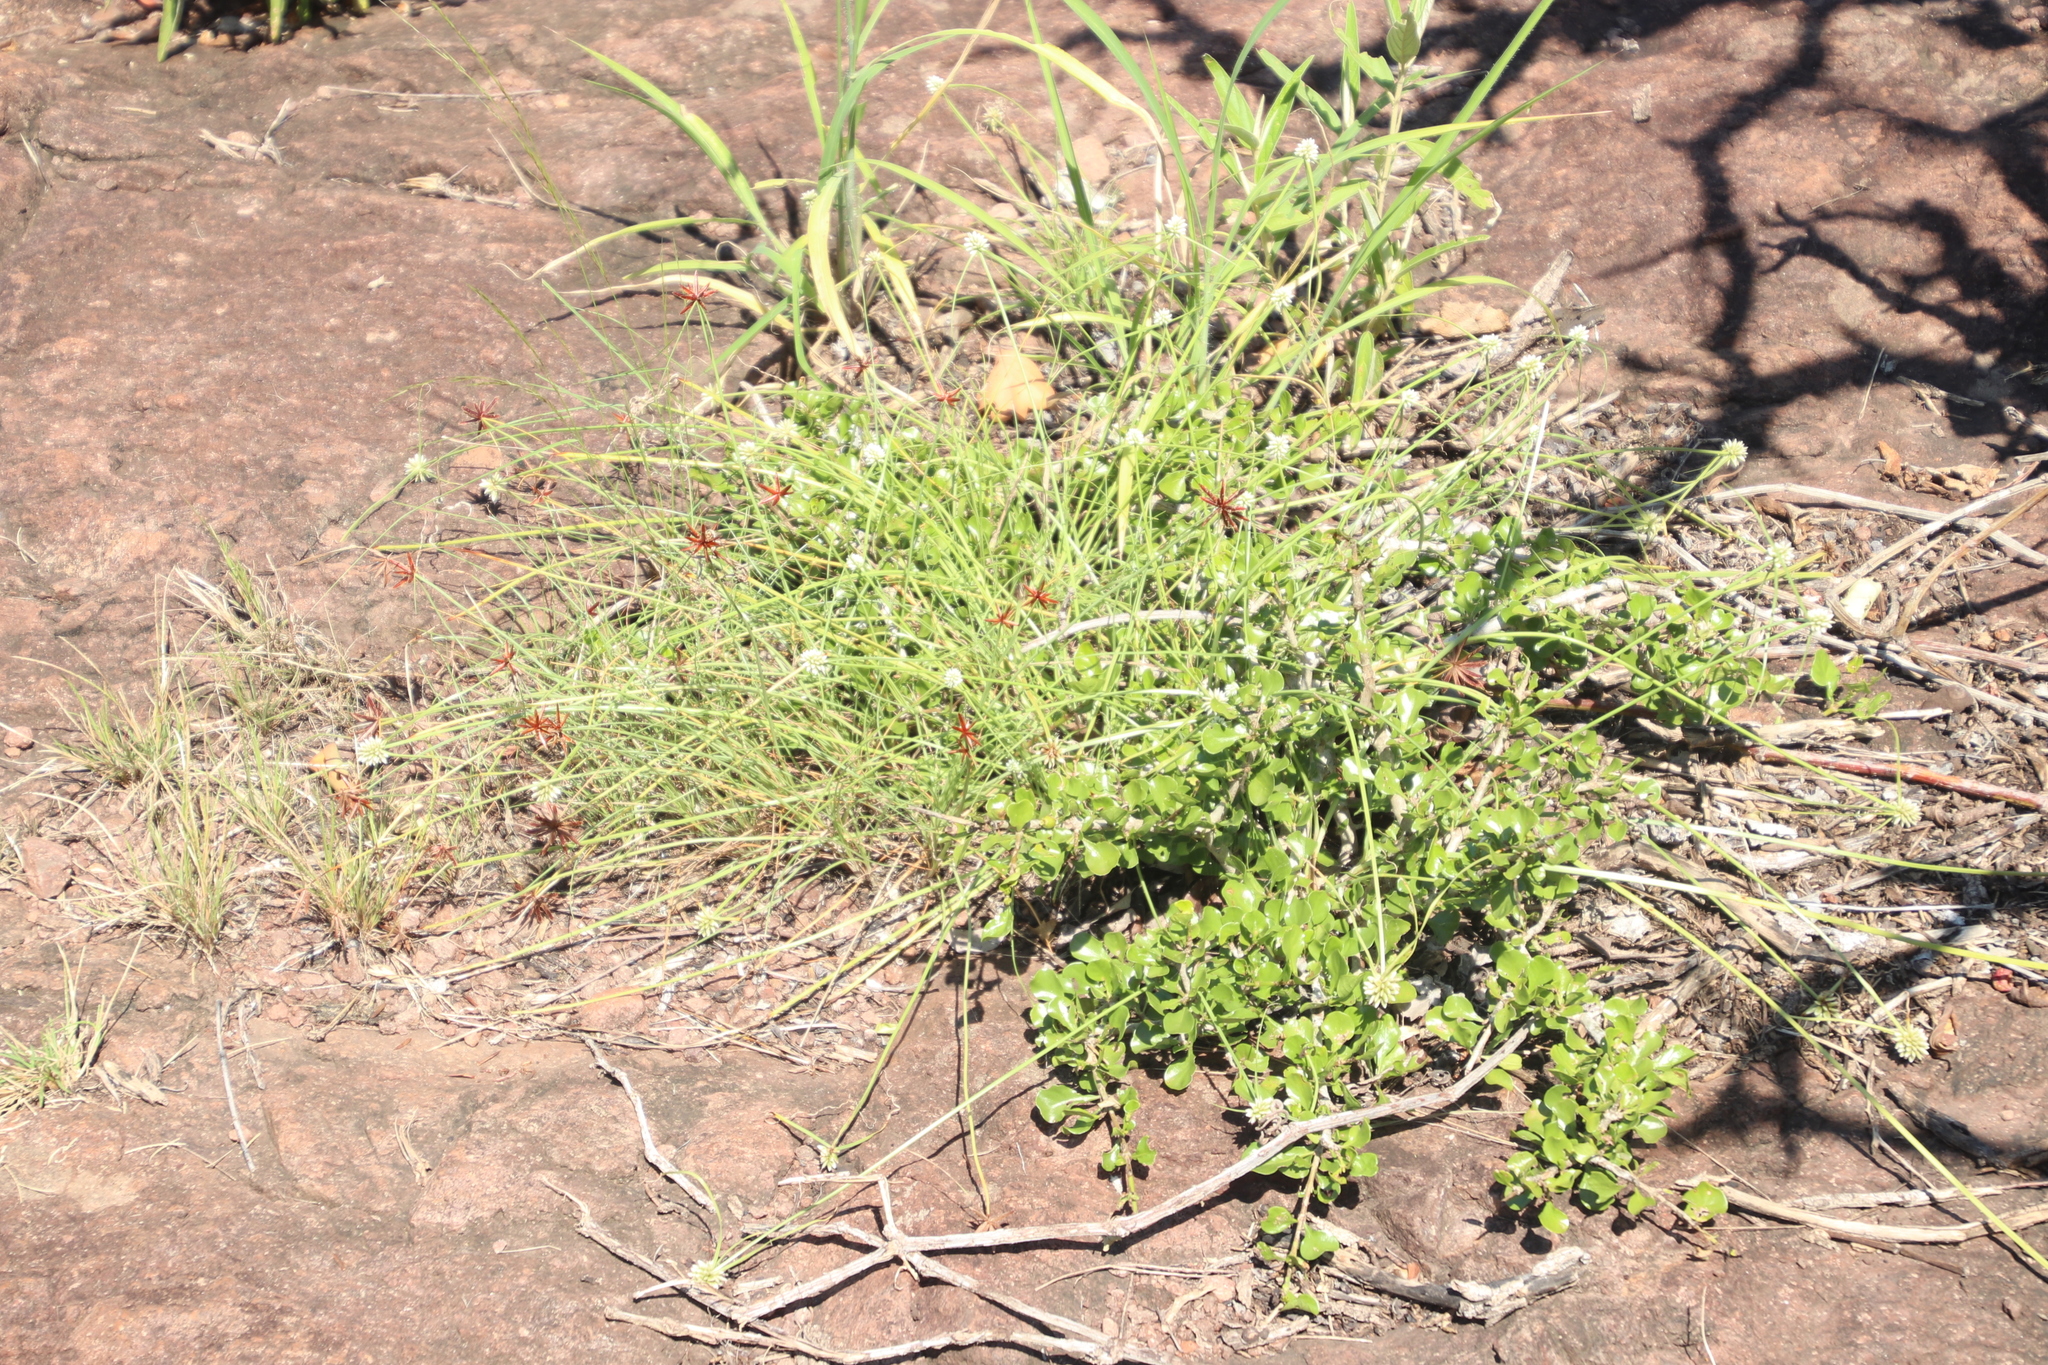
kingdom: Plantae
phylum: Tracheophyta
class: Liliopsida
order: Poales
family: Cyperaceae
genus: Cyperus
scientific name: Cyperus semitrifidus
